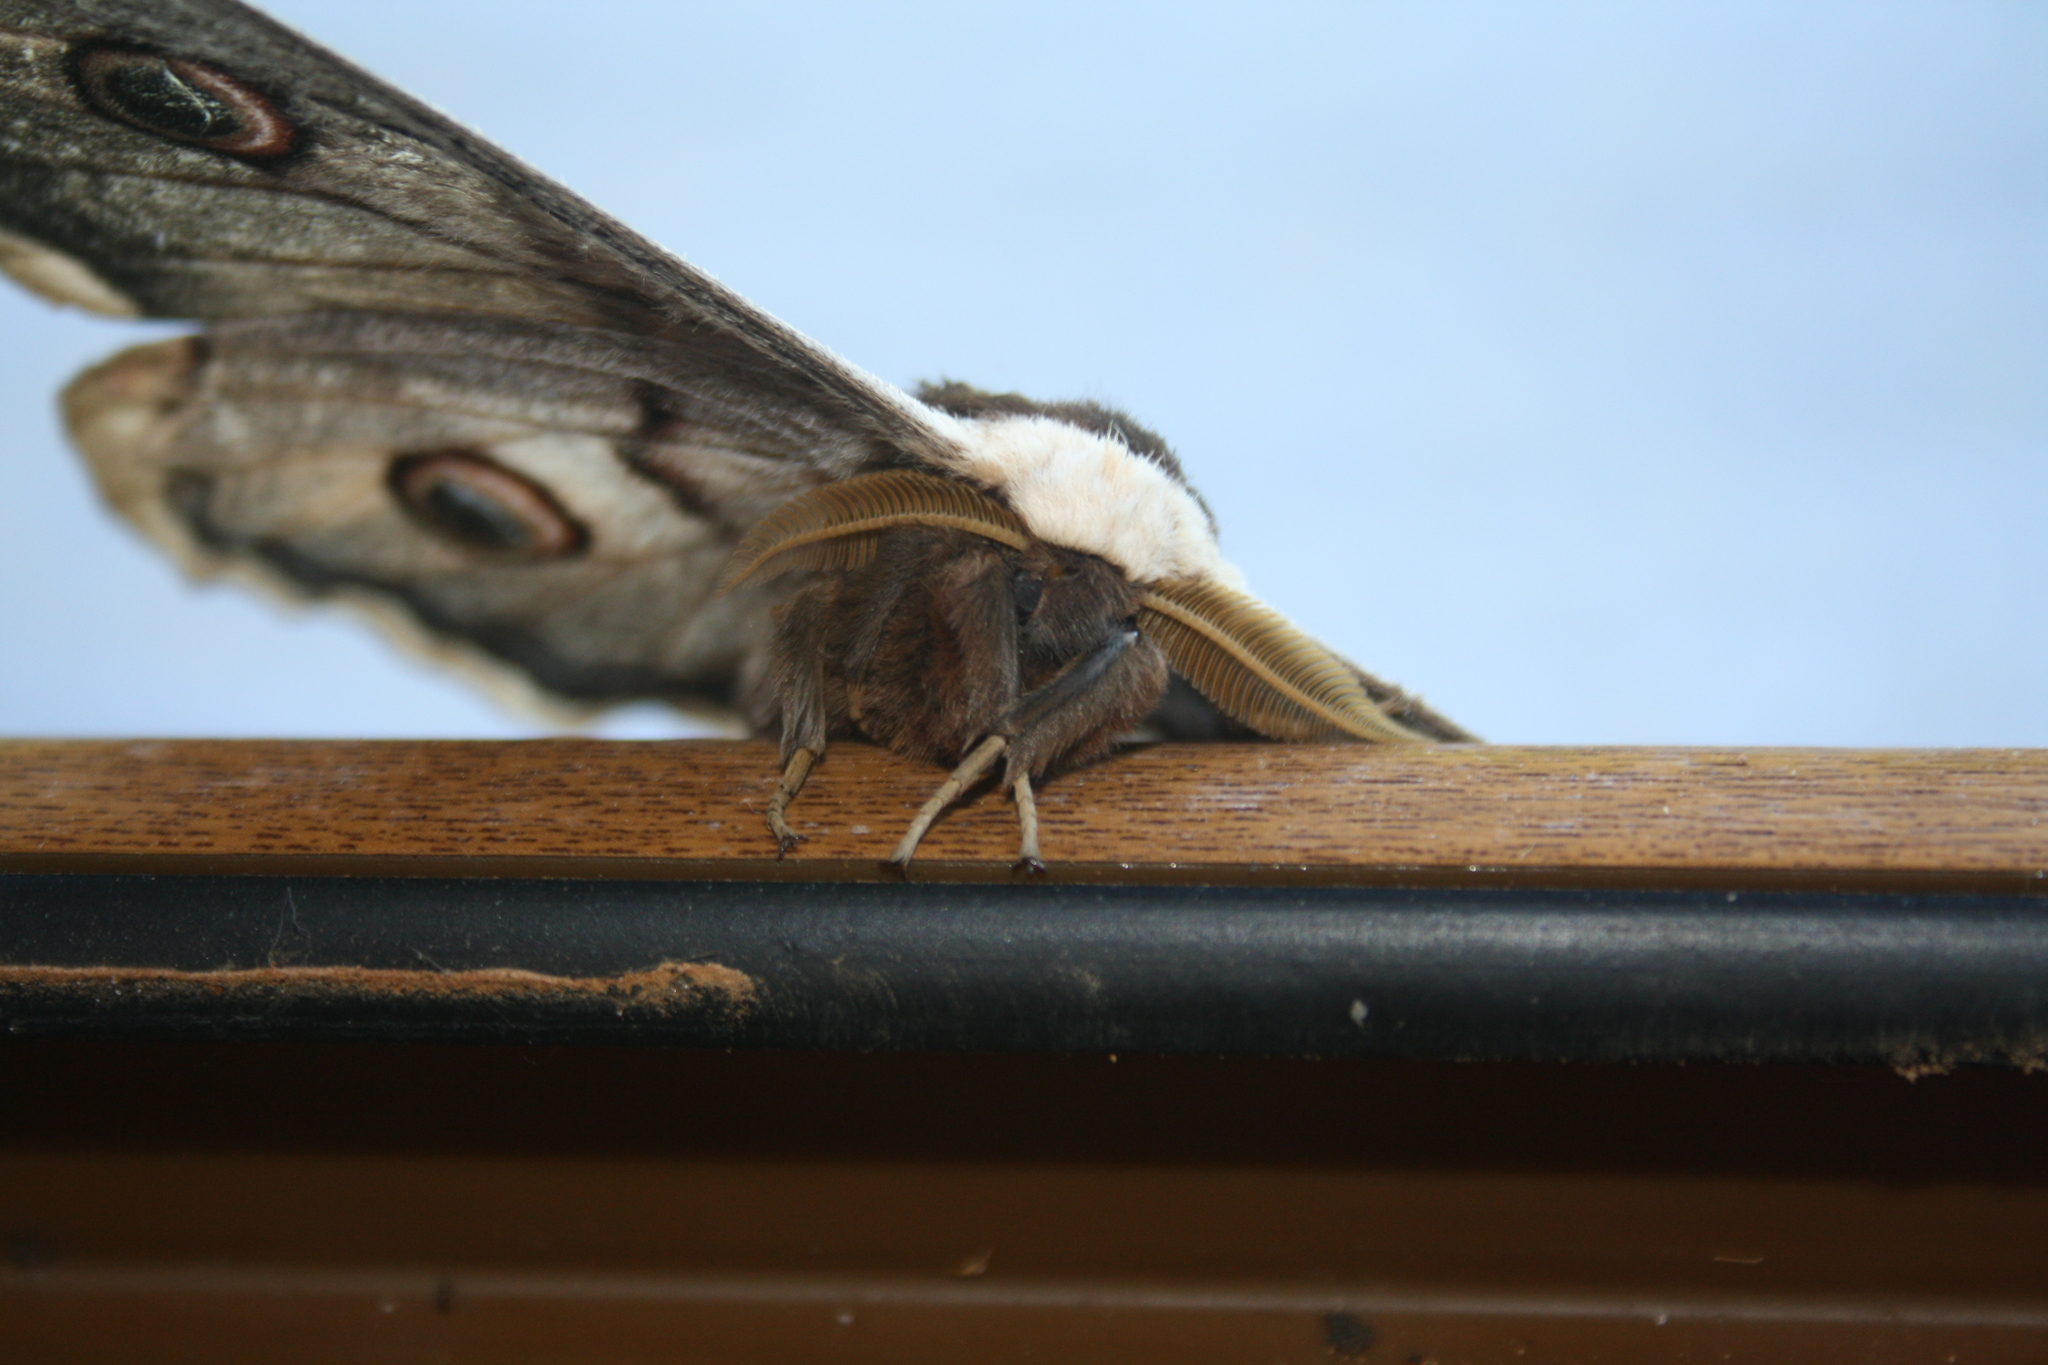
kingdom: Animalia
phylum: Arthropoda
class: Insecta
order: Lepidoptera
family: Saturniidae
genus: Saturnia
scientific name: Saturnia pyri
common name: Great peacock moth
